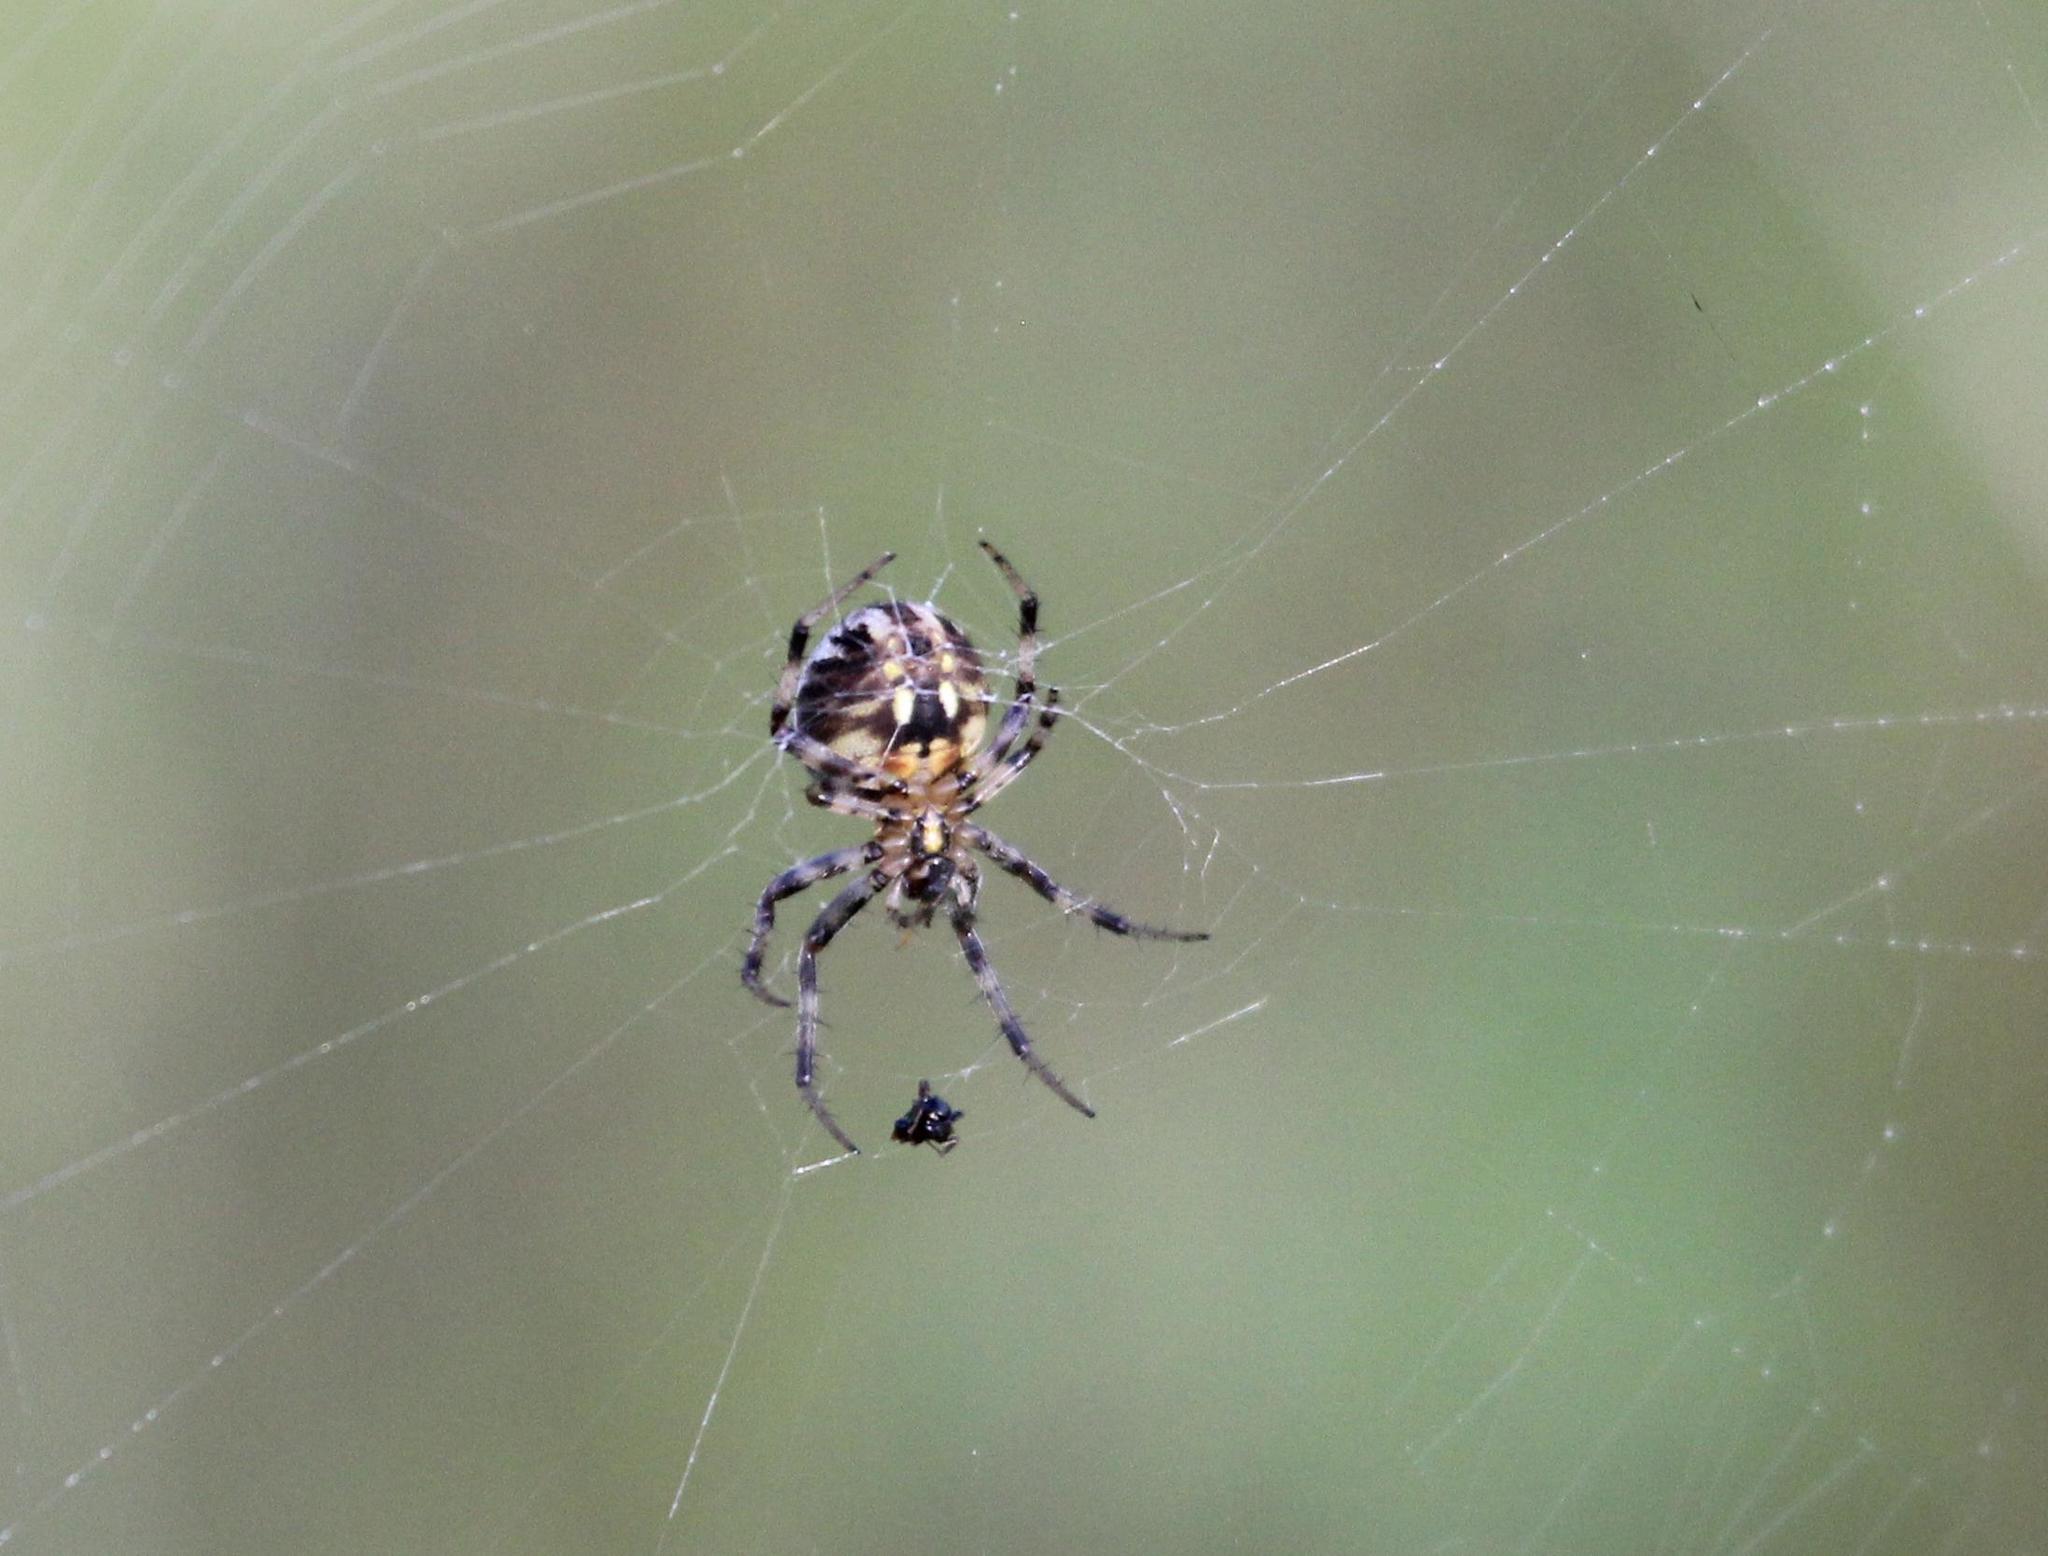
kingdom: Animalia
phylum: Arthropoda
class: Arachnida
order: Araneae
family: Araneidae
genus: Neoscona
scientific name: Neoscona arabesca
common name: Orb weavers
